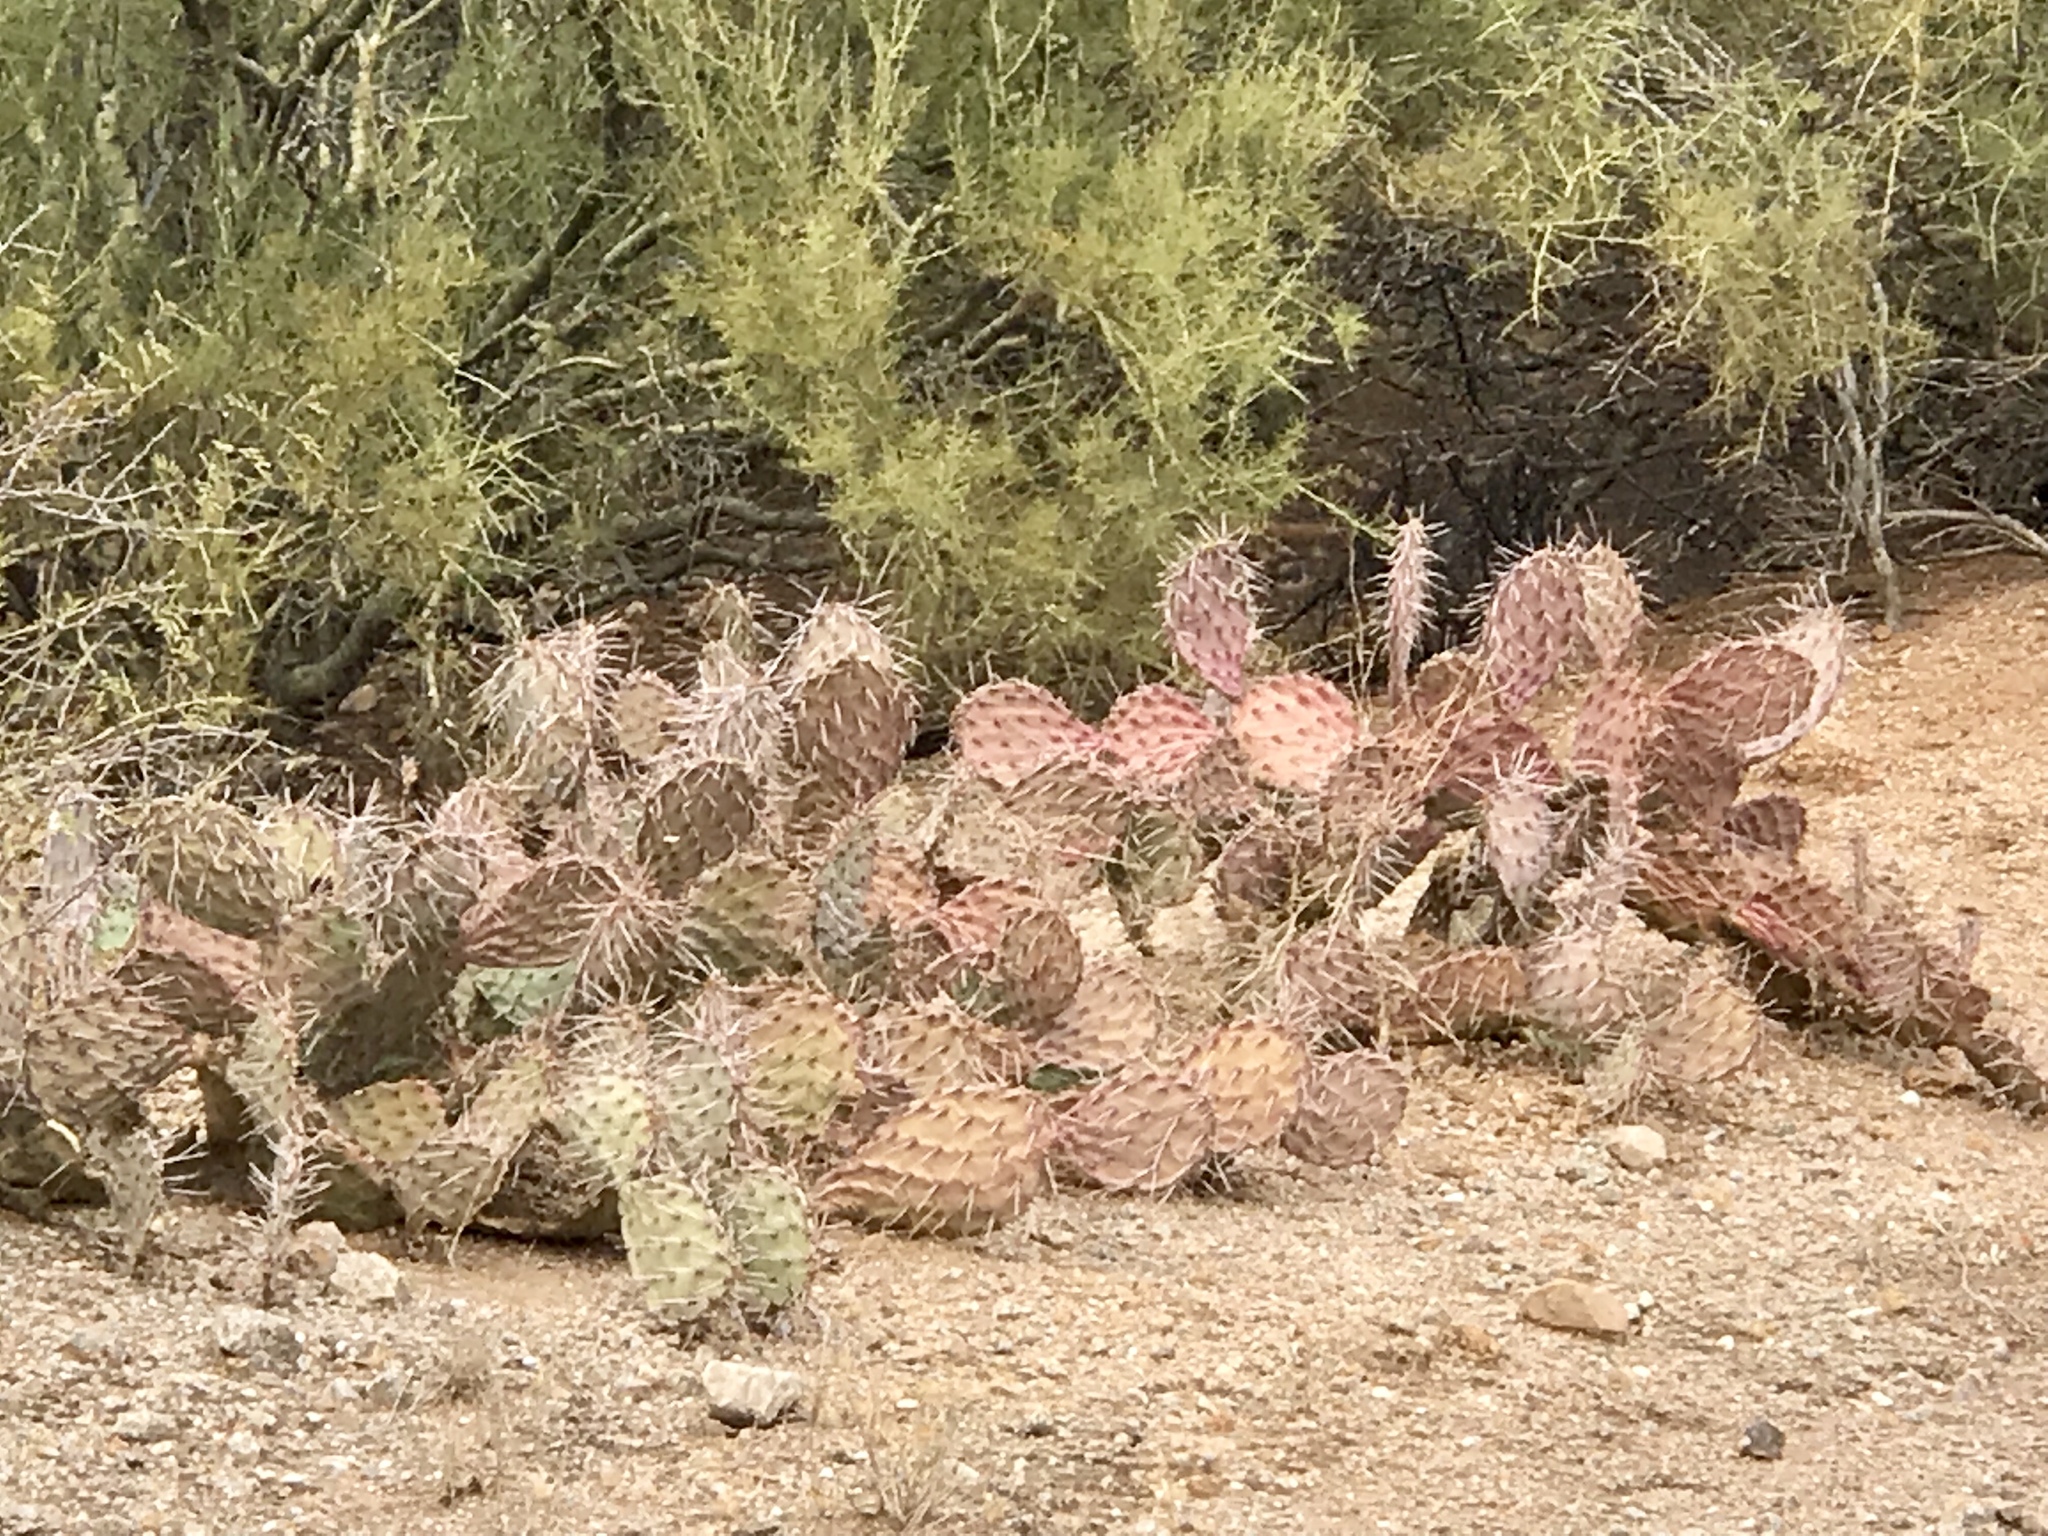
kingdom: Plantae
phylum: Tracheophyta
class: Magnoliopsida
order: Caryophyllales
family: Cactaceae
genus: Opuntia
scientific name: Opuntia phaeacantha
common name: New mexico prickly-pear
